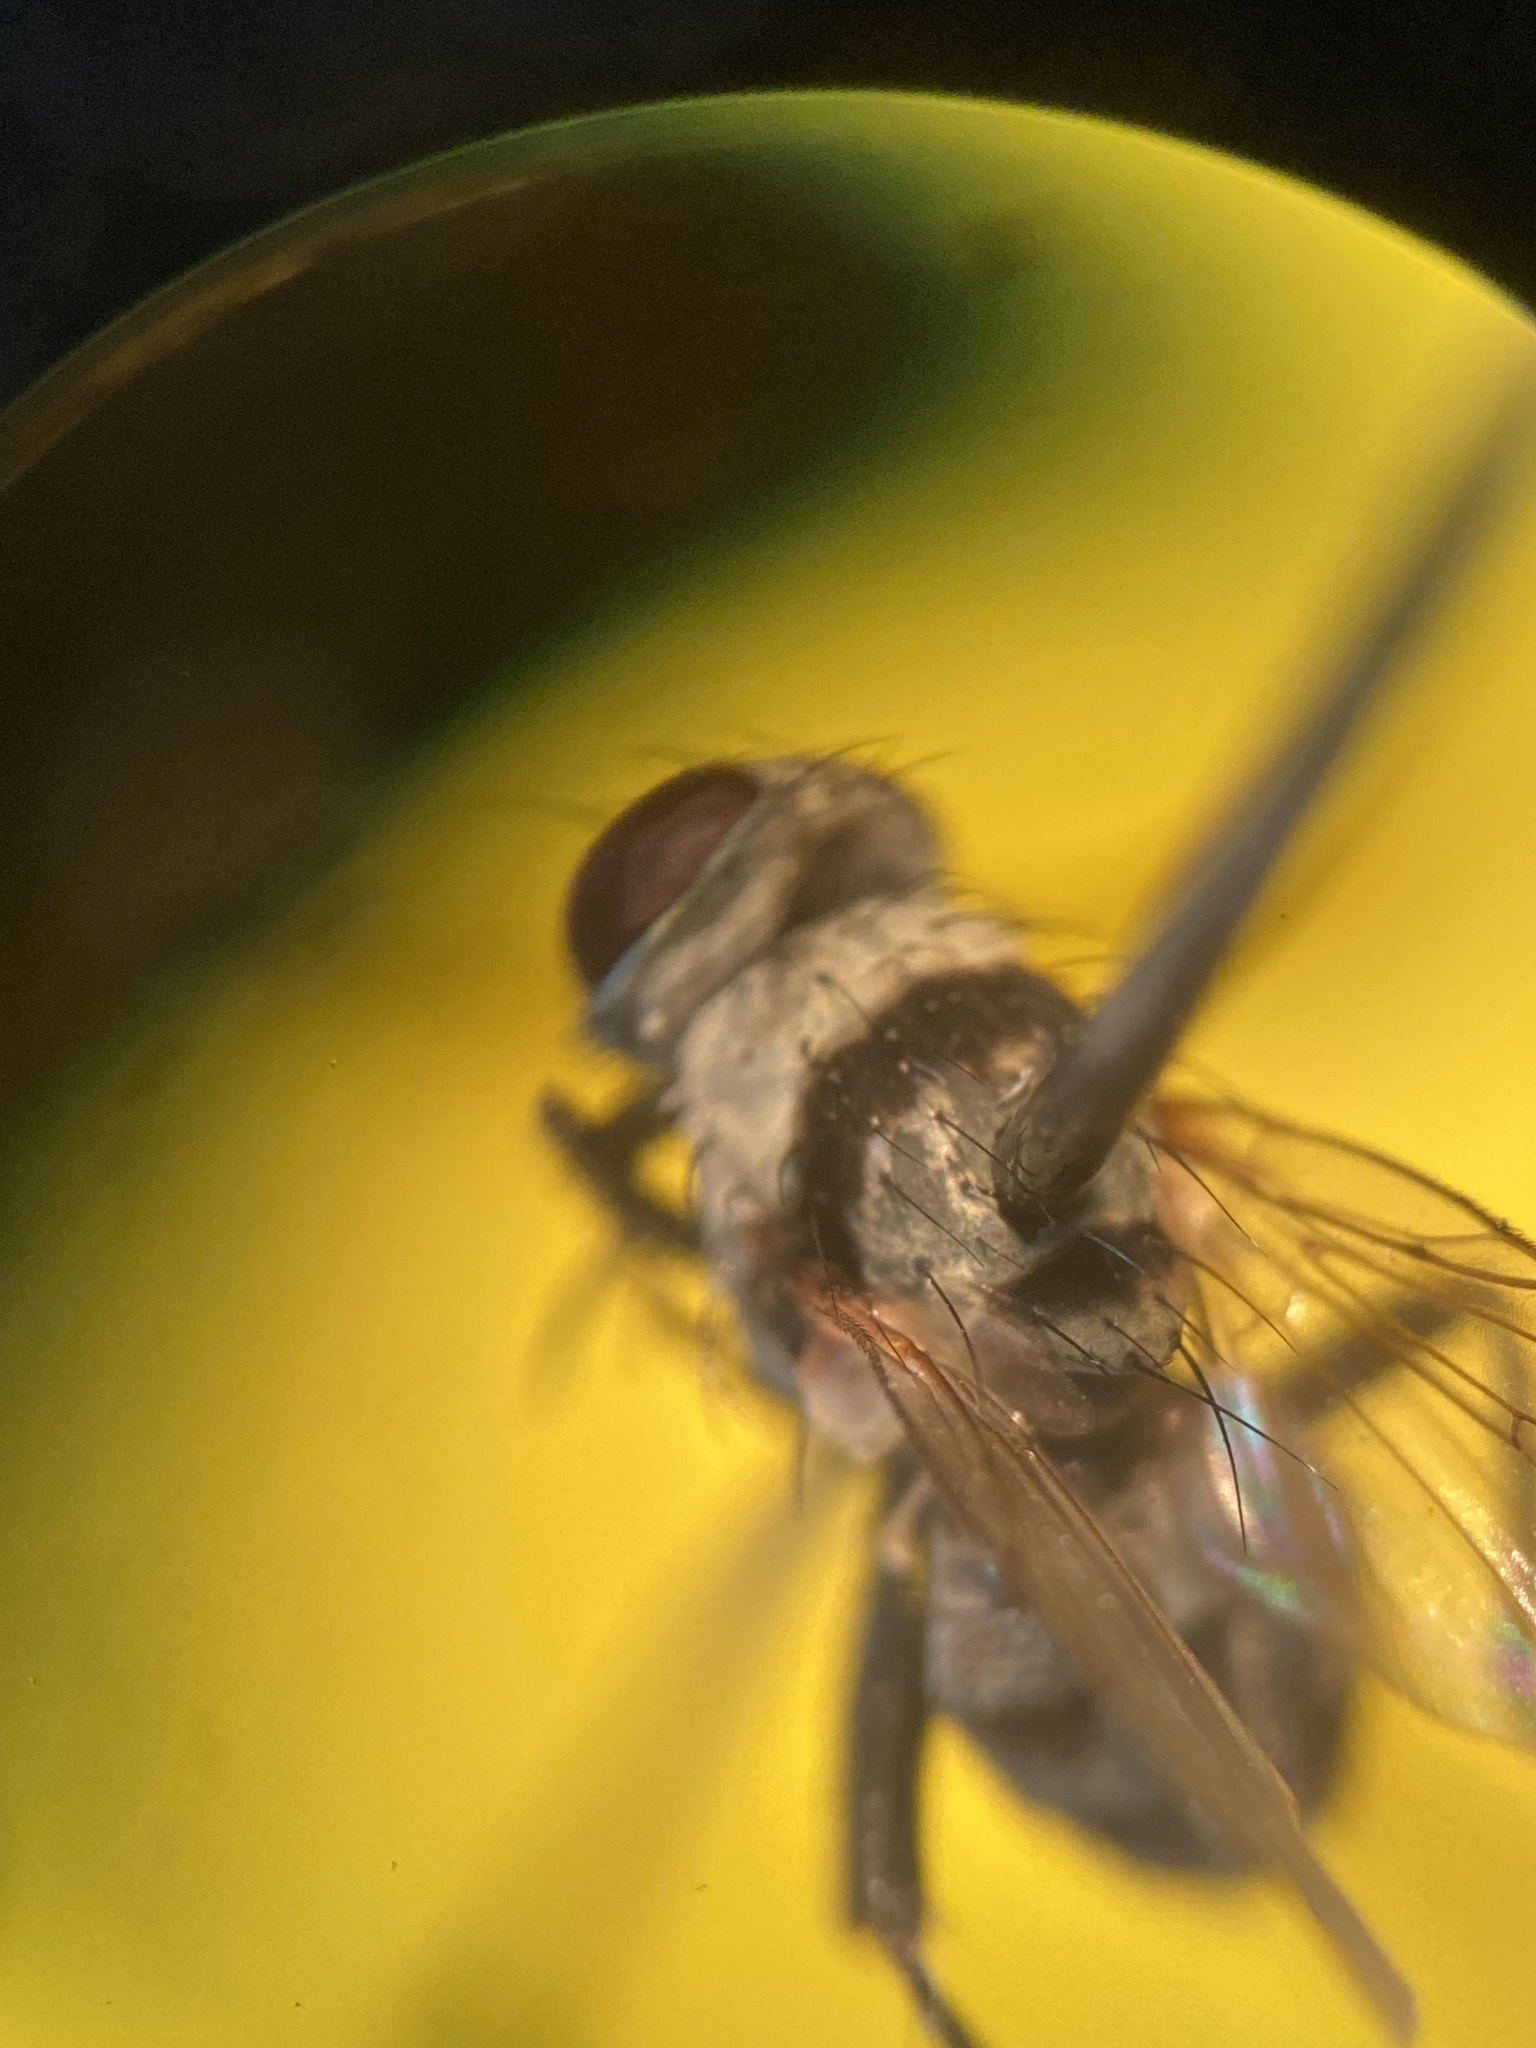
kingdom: Animalia
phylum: Arthropoda
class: Insecta
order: Diptera
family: Anthomyiidae
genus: Anthomyia
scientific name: Anthomyia illocata
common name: Fly
